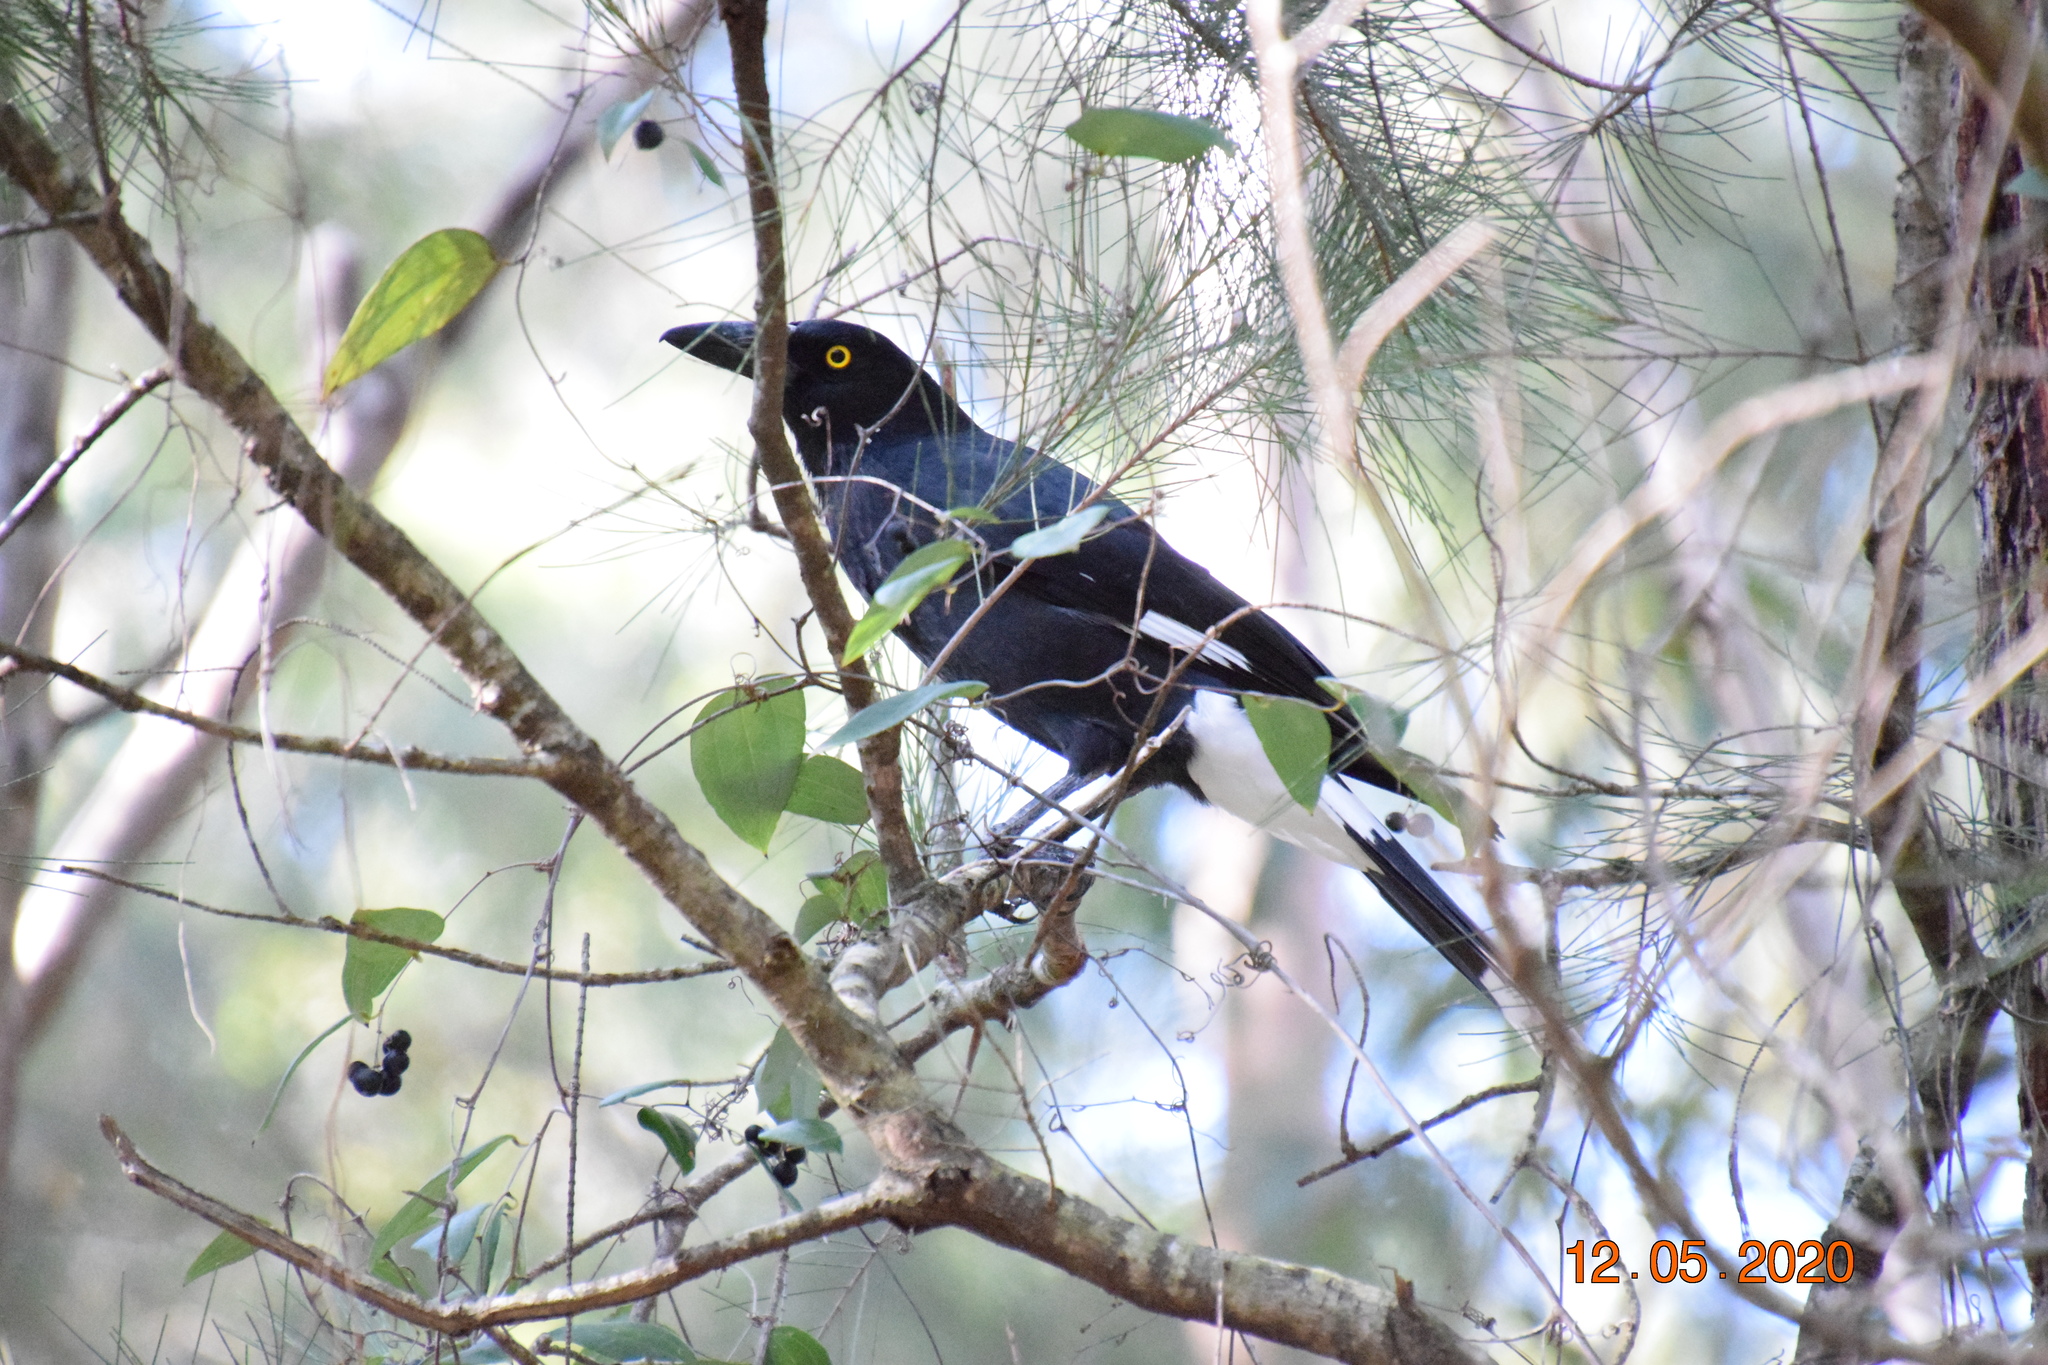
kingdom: Animalia
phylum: Chordata
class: Aves
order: Passeriformes
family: Cracticidae
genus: Strepera
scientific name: Strepera graculina
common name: Pied currawong
